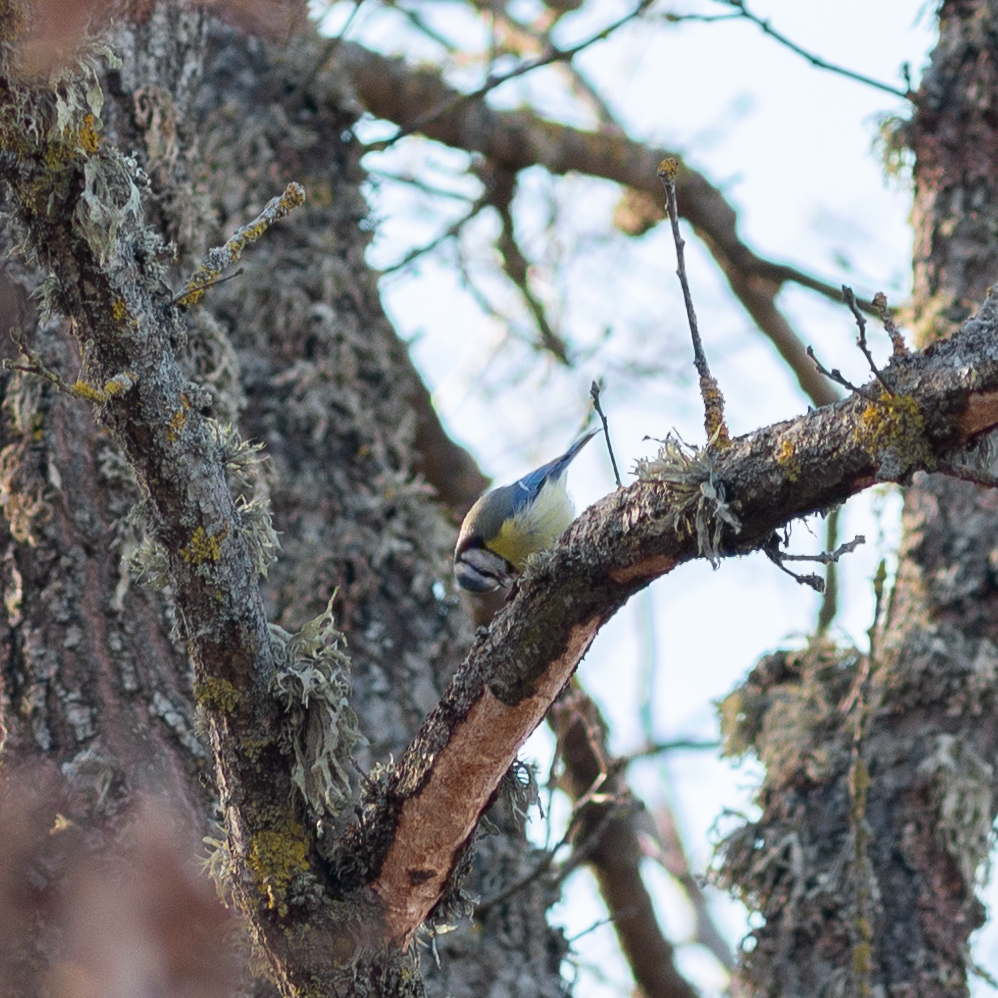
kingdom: Animalia
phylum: Chordata
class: Aves
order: Passeriformes
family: Paridae
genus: Cyanistes
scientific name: Cyanistes caeruleus
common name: Eurasian blue tit
